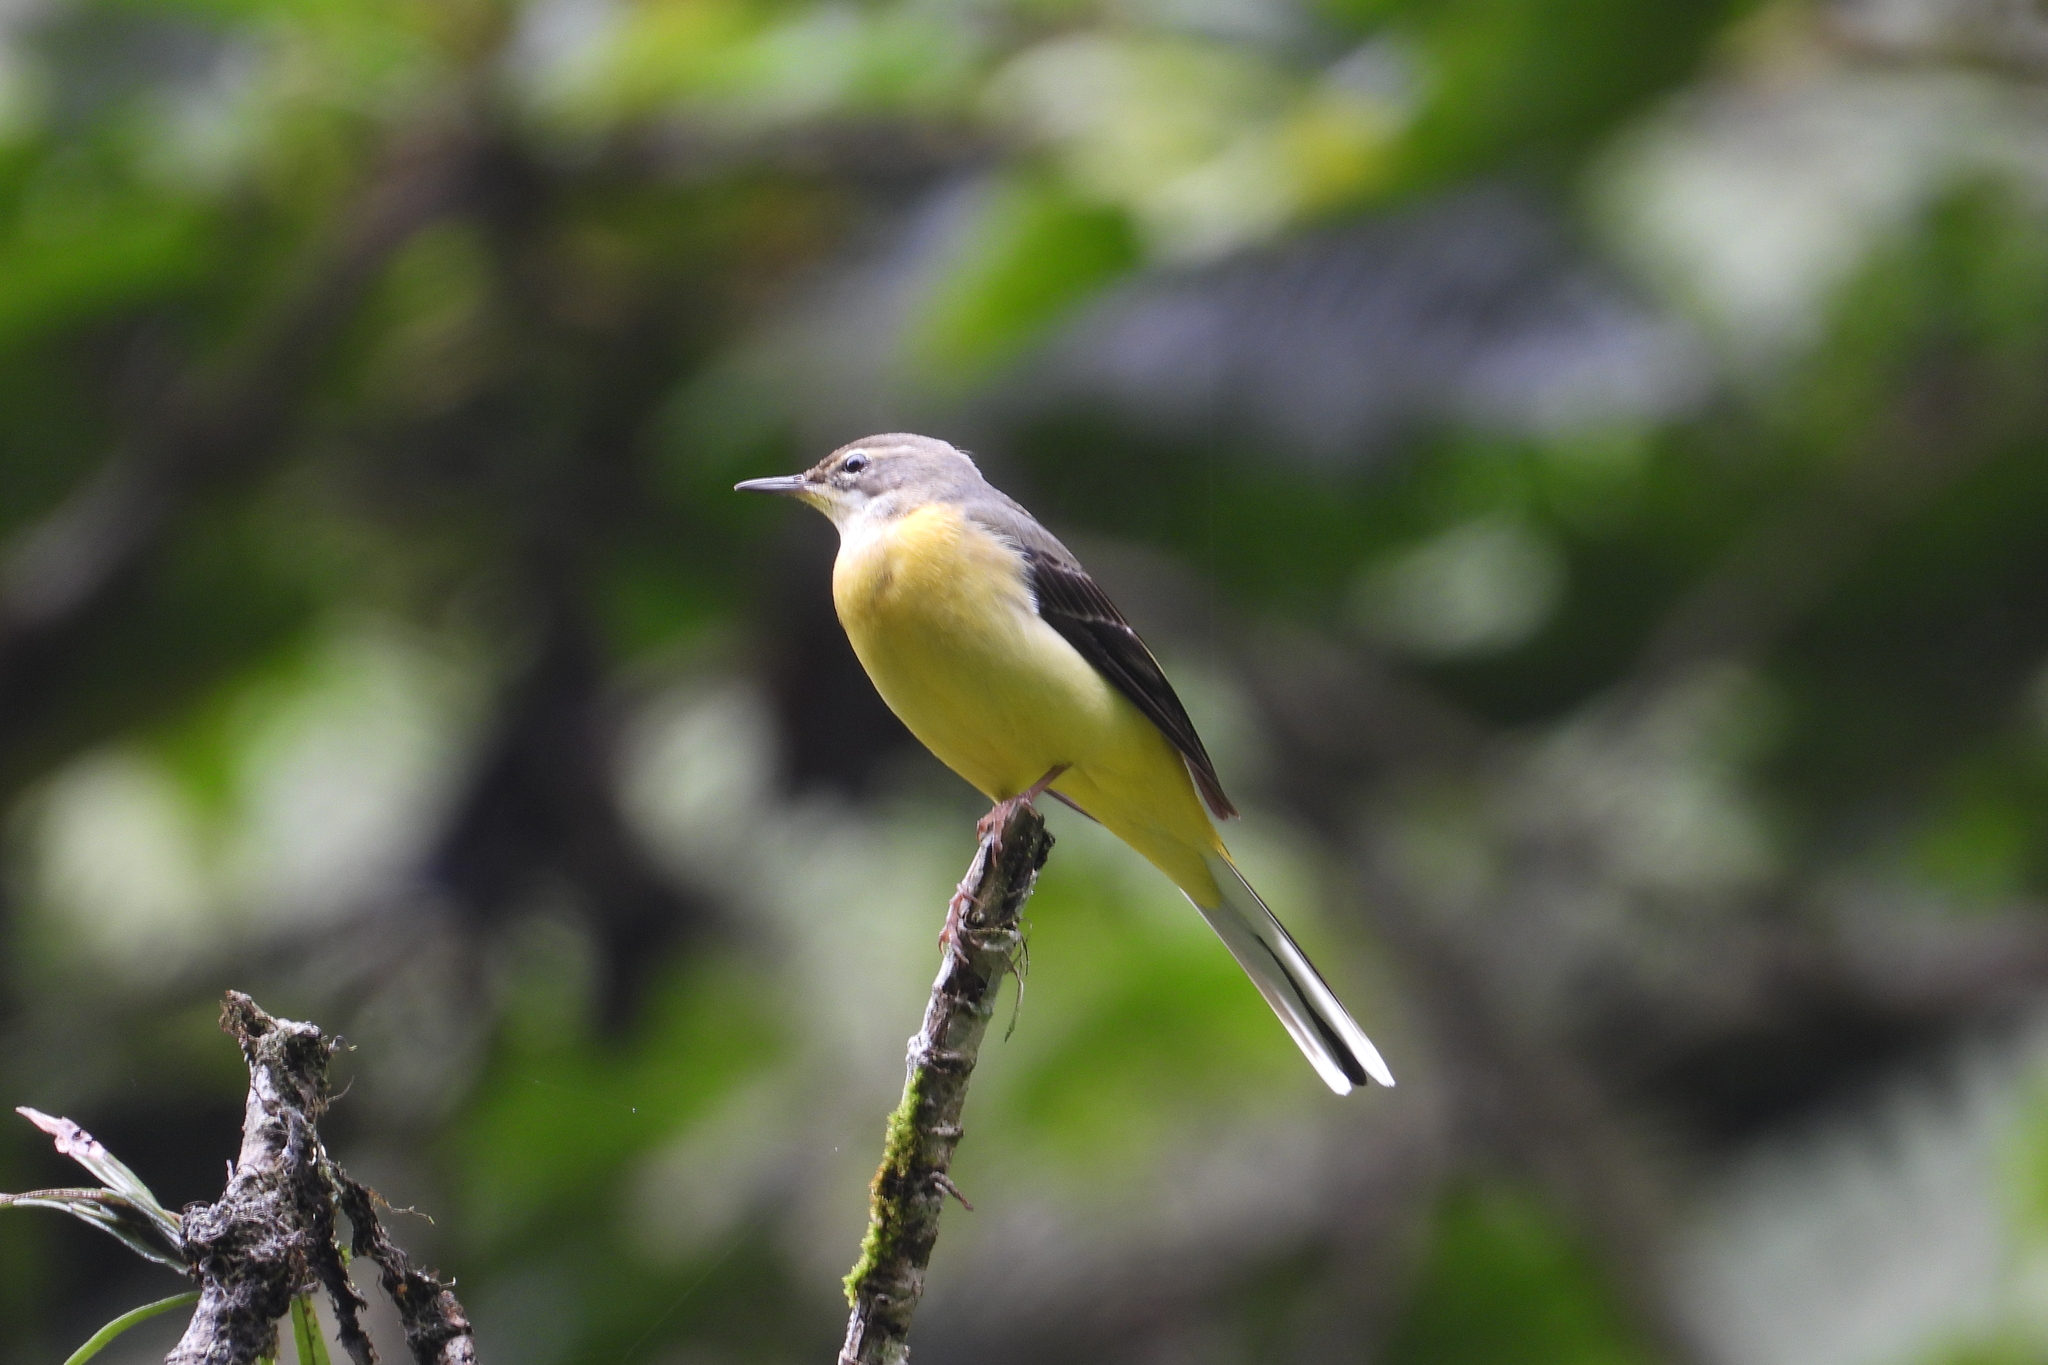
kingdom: Animalia
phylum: Chordata
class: Aves
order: Passeriformes
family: Motacillidae
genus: Motacilla
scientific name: Motacilla cinerea
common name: Grey wagtail
